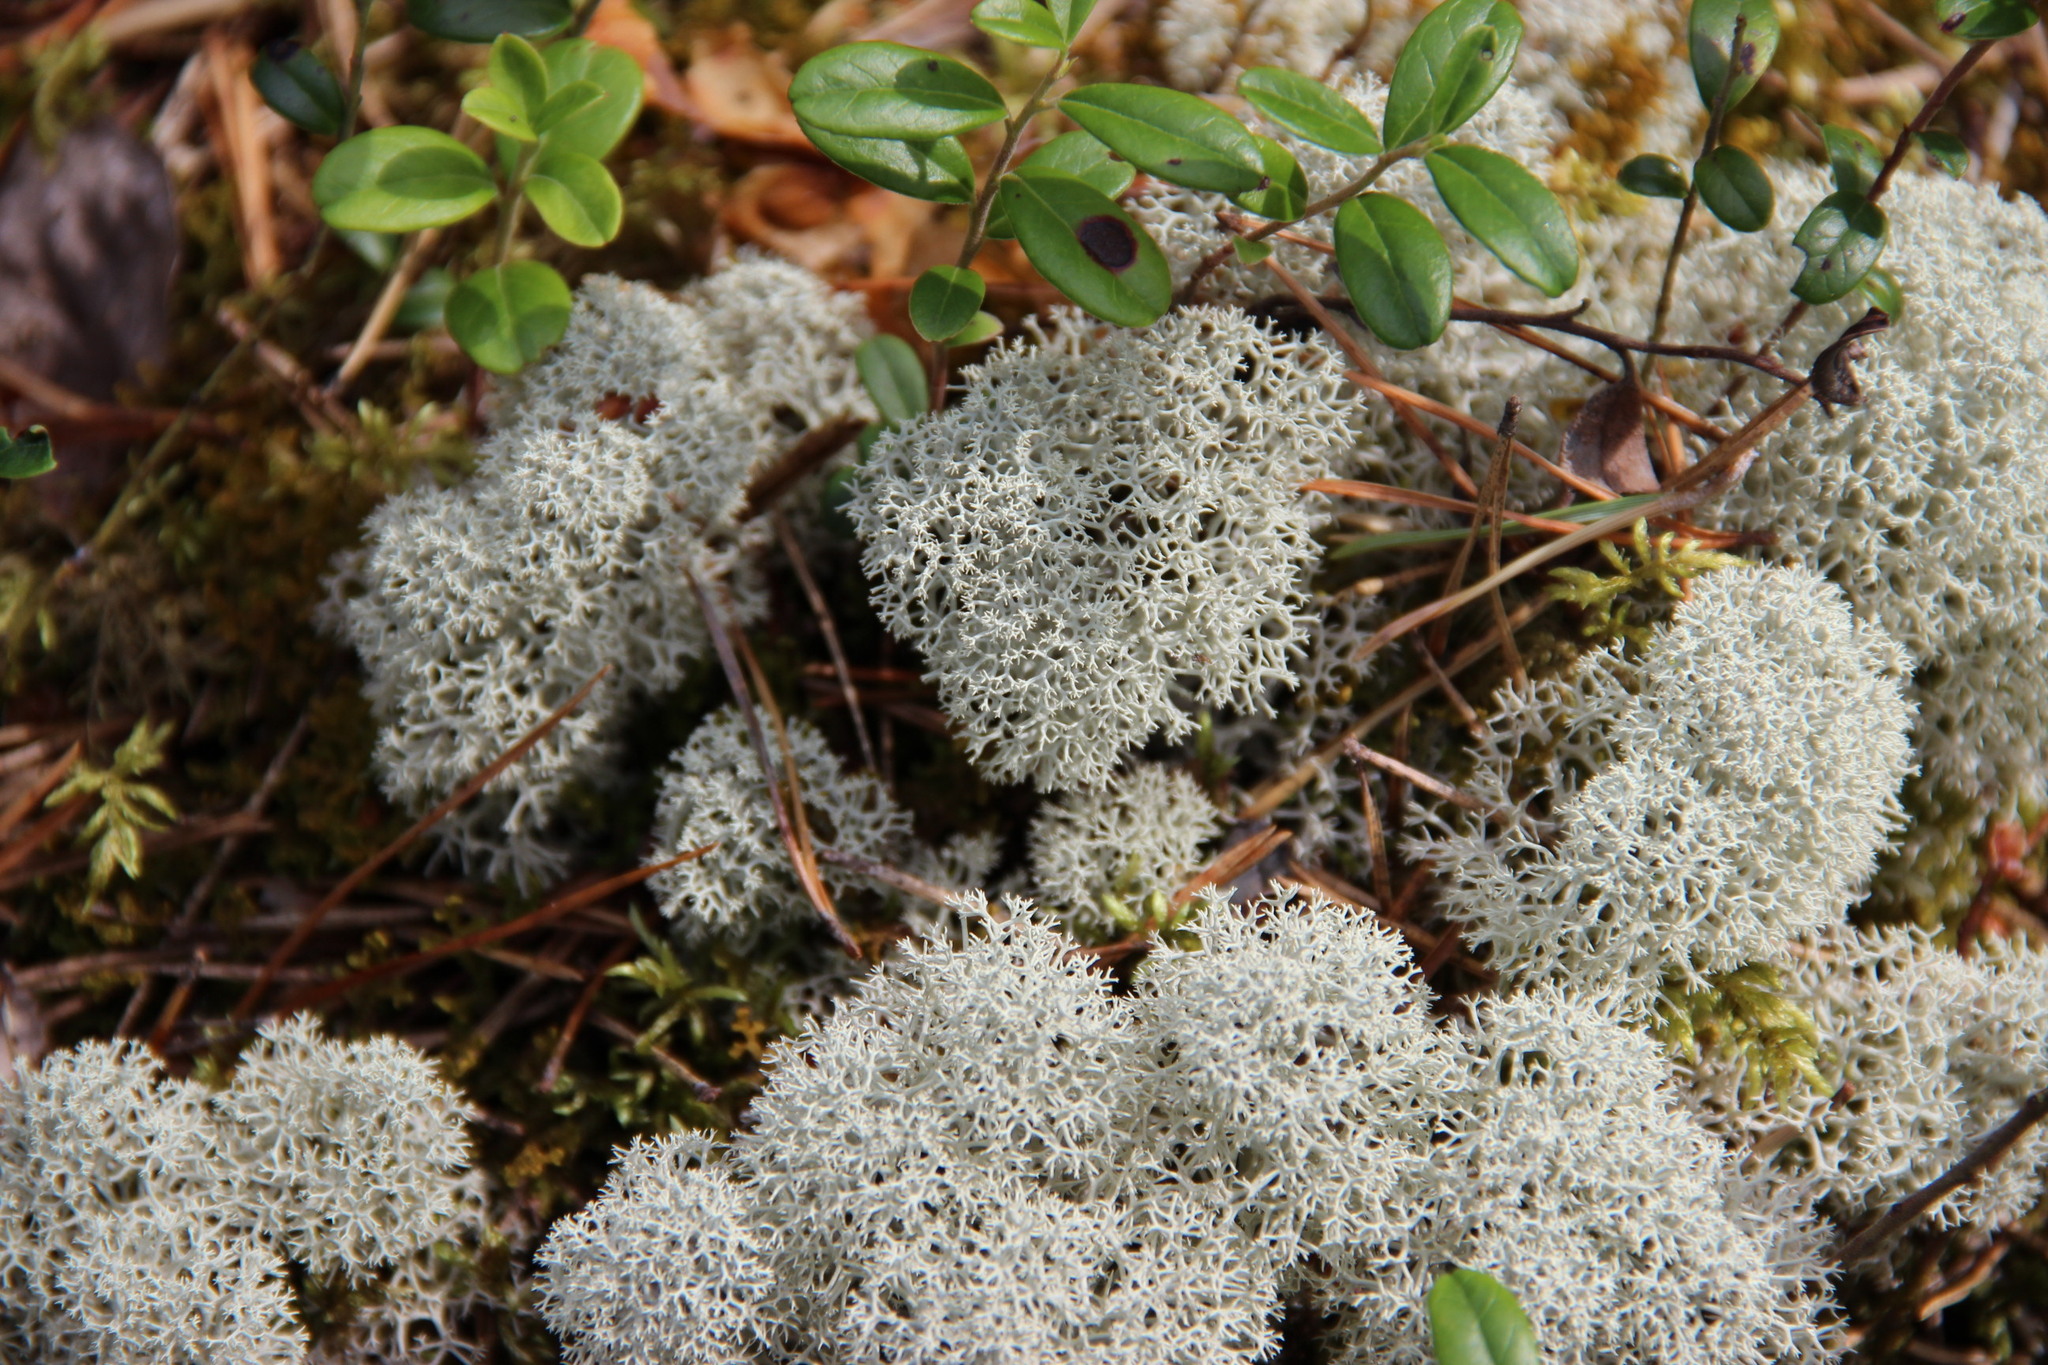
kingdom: Fungi
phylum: Ascomycota
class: Lecanoromycetes
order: Lecanorales
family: Cladoniaceae
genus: Cladonia
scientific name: Cladonia stellaris
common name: Star-tipped reindeer lichen
